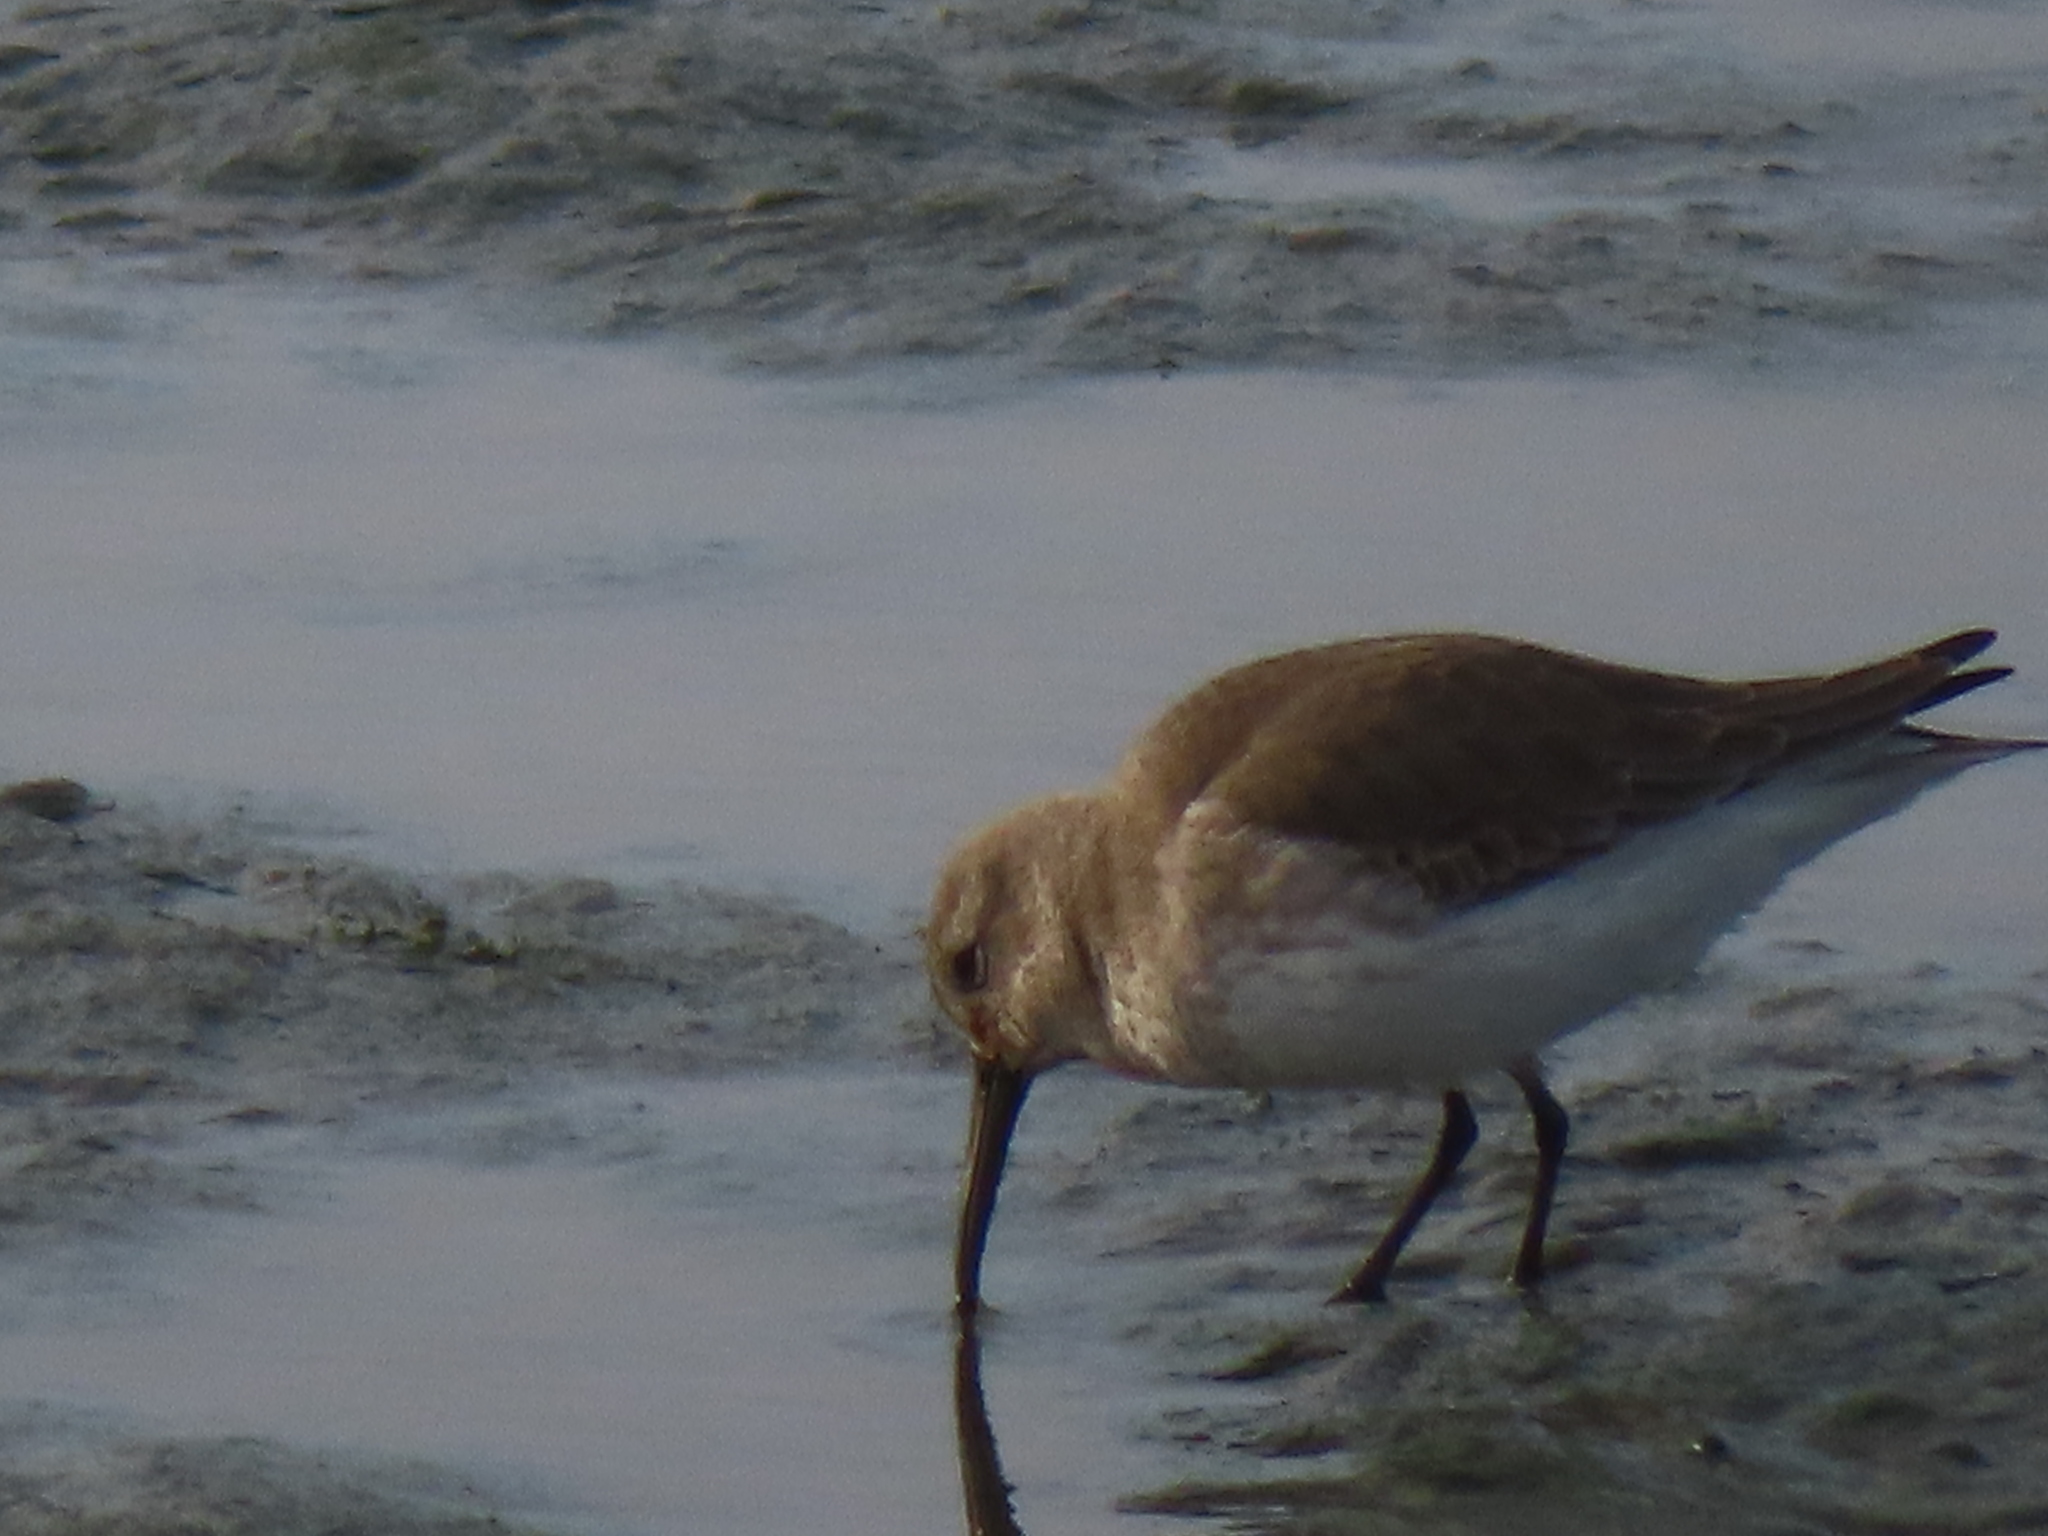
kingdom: Animalia
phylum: Chordata
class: Aves
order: Charadriiformes
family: Scolopacidae
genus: Calidris
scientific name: Calidris alpina
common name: Dunlin
